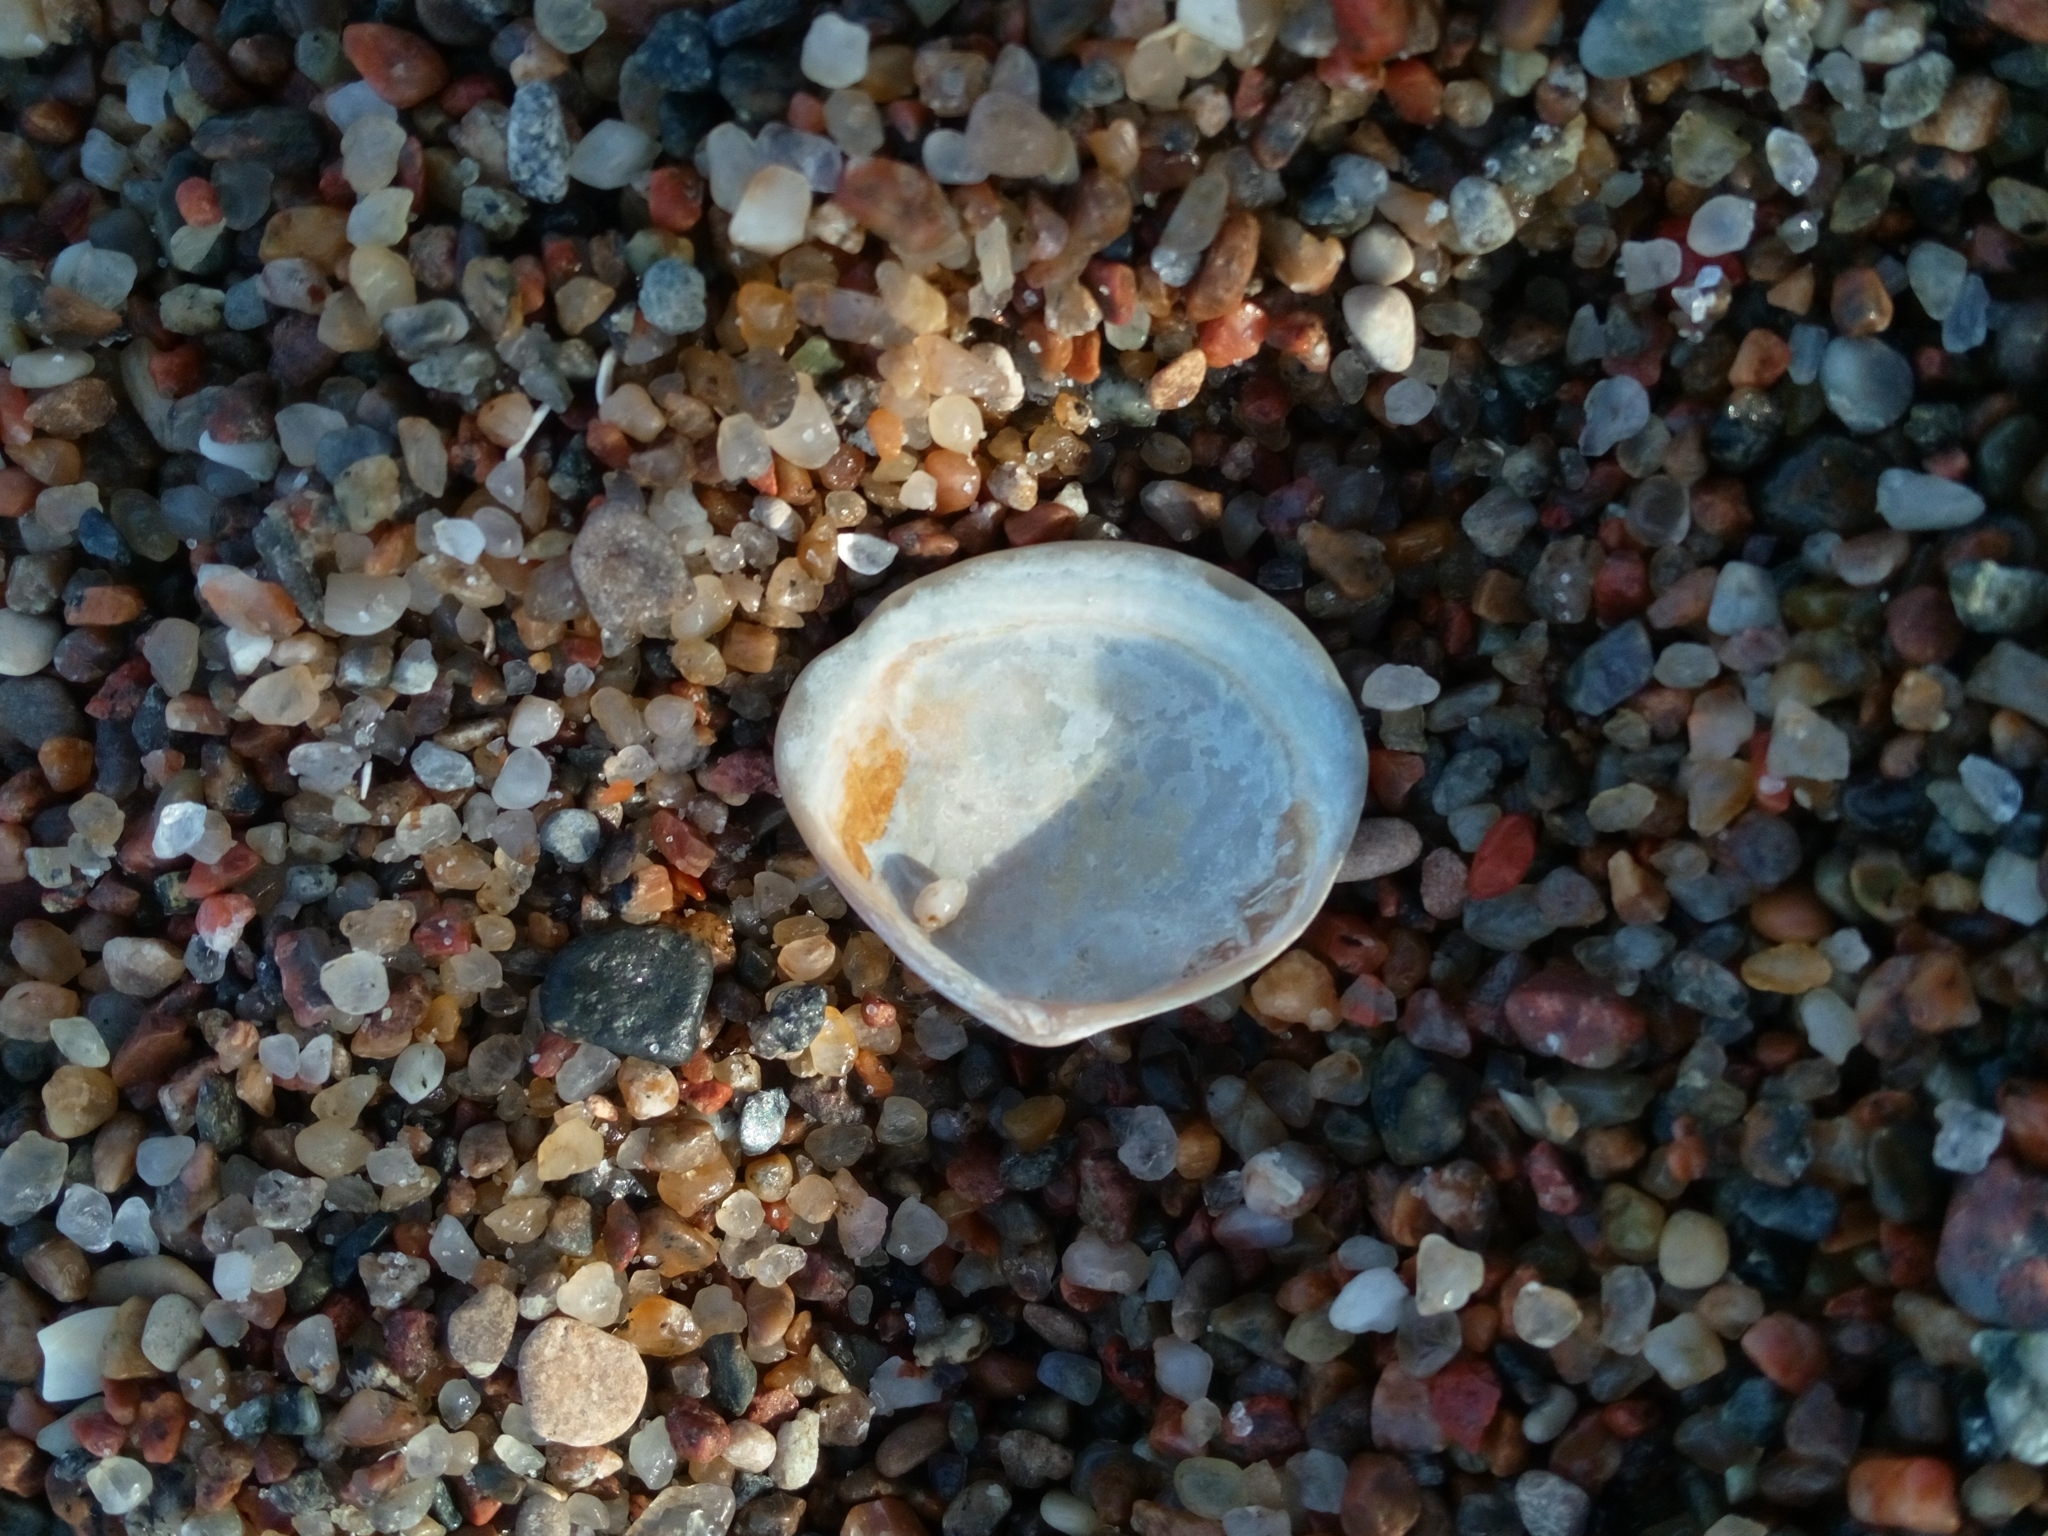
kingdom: Animalia
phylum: Mollusca
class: Bivalvia
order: Cardiida
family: Tellinidae
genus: Macoma
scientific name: Macoma balthica
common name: Baltic tellin
